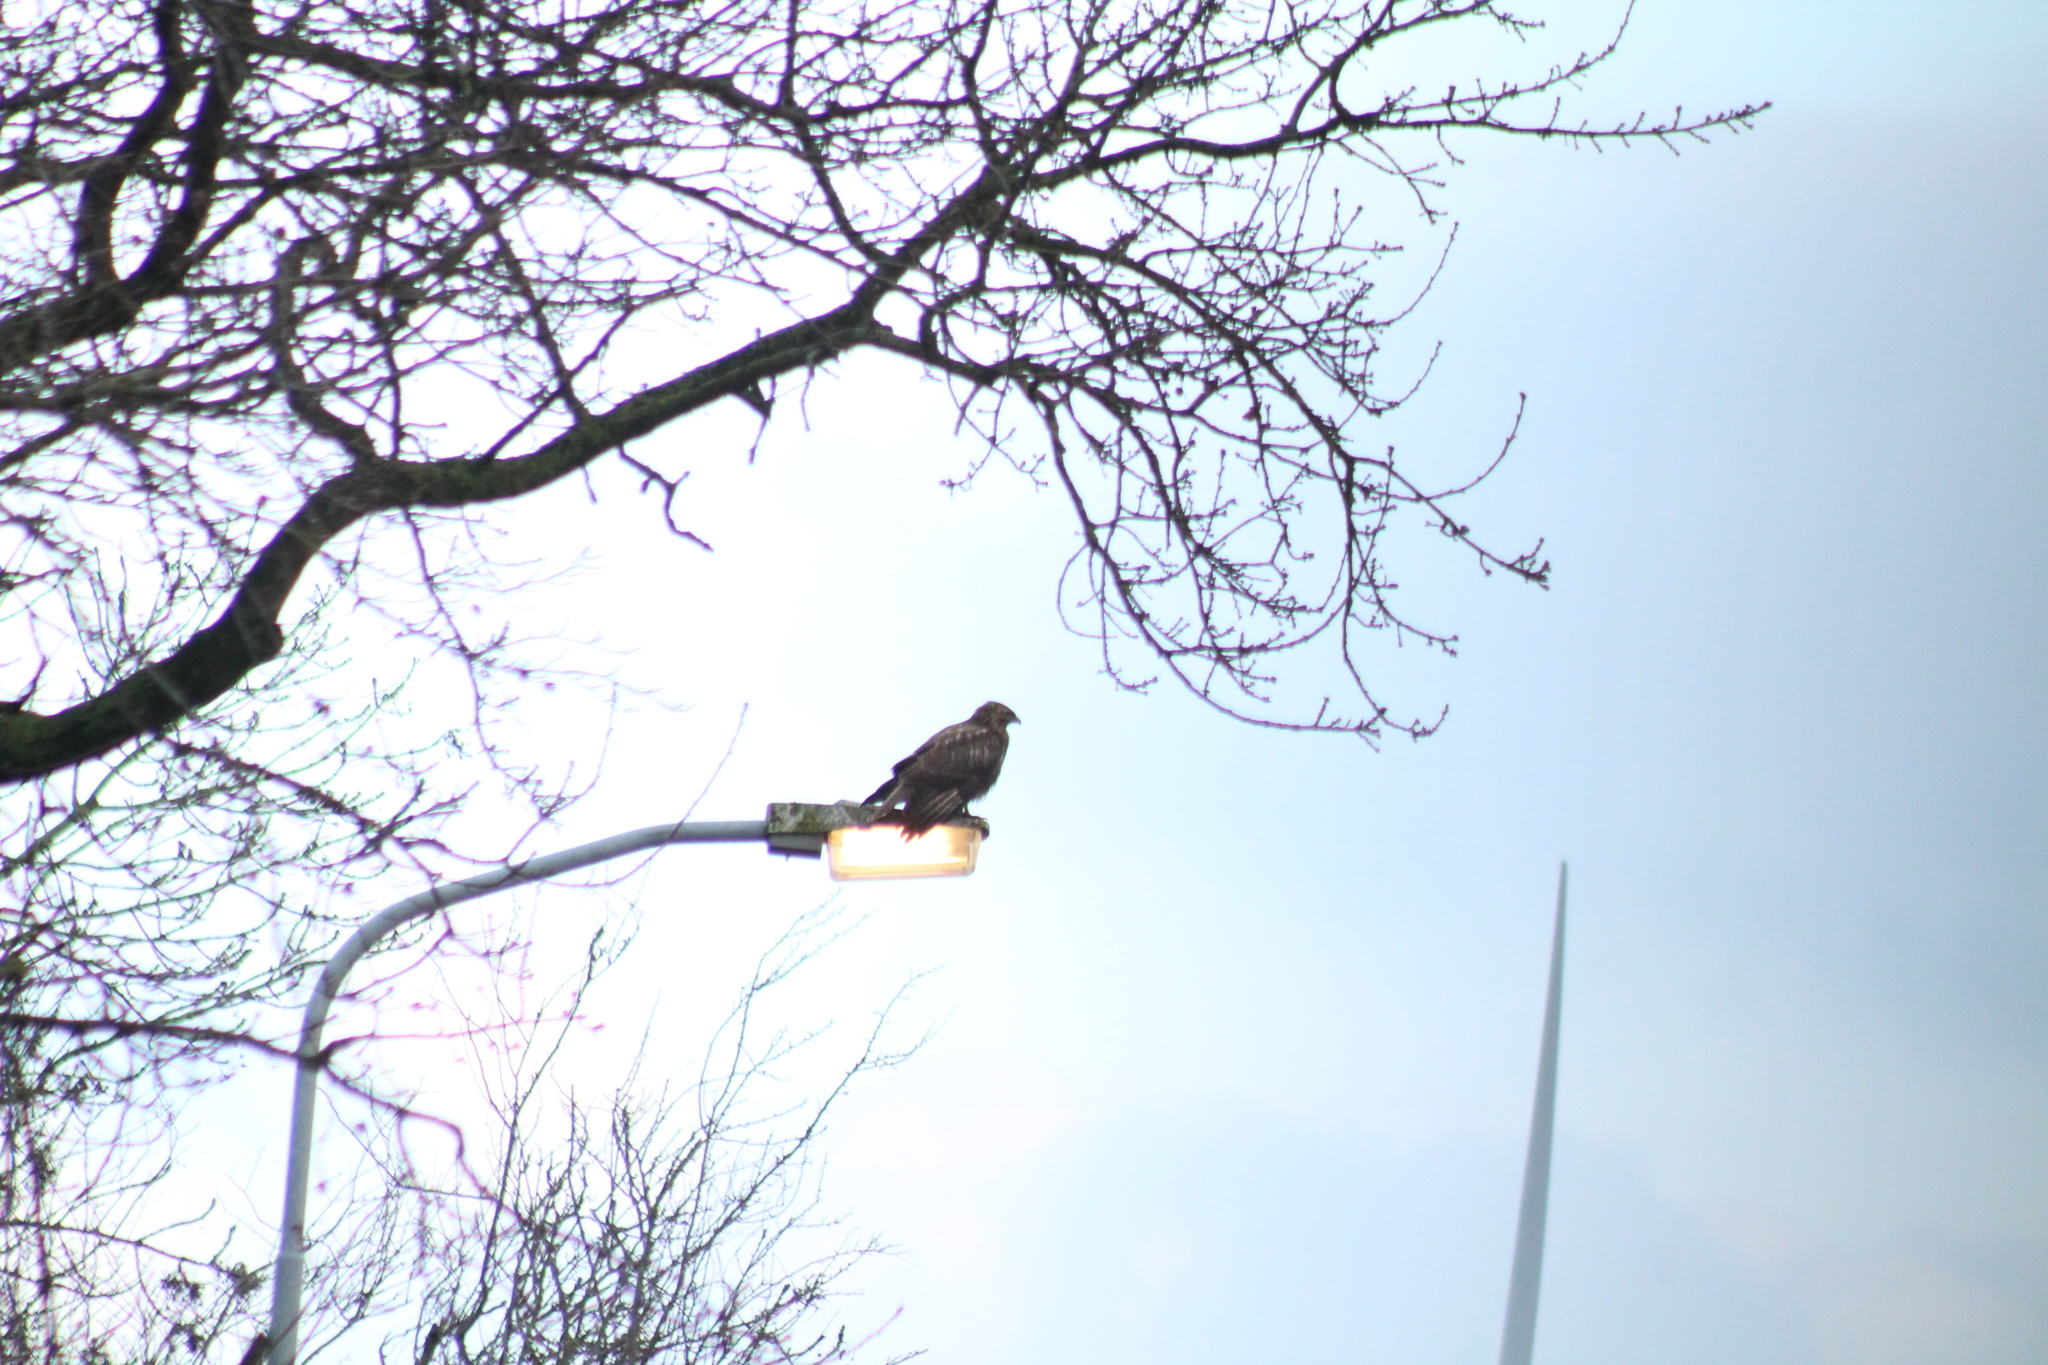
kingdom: Animalia
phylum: Chordata
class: Aves
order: Accipitriformes
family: Accipitridae
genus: Buteo
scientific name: Buteo buteo
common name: Common buzzard
